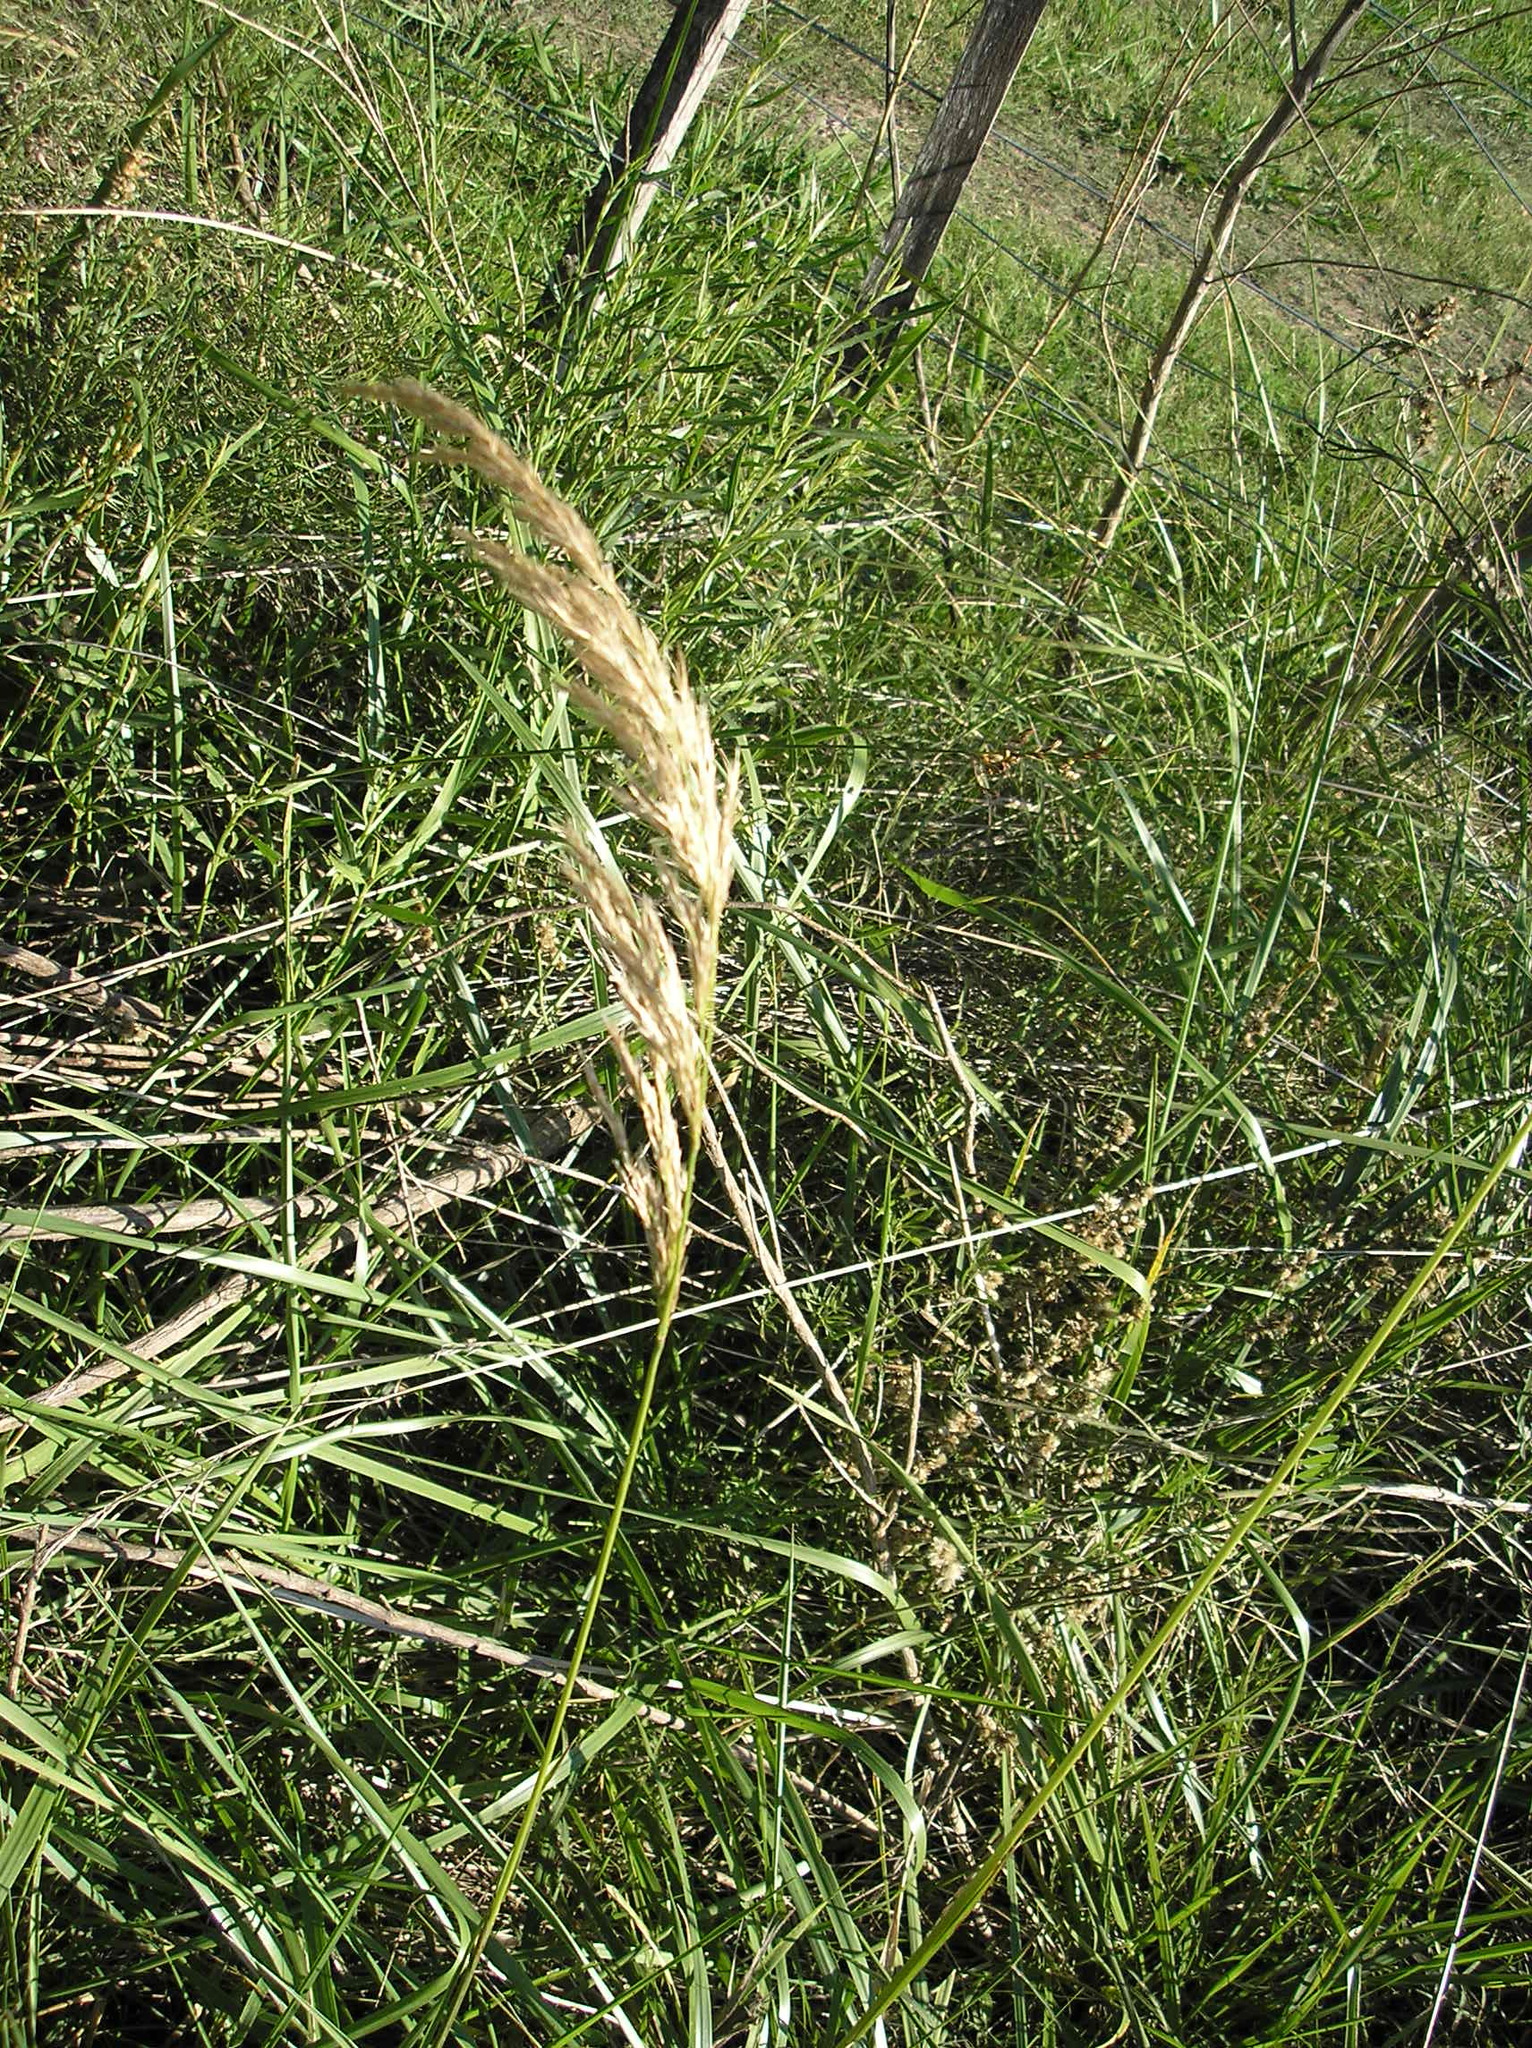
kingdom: Plantae
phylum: Tracheophyta
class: Liliopsida
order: Poales
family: Poaceae
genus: Cinnagrostis
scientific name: Cinnagrostis viridiflavescens
